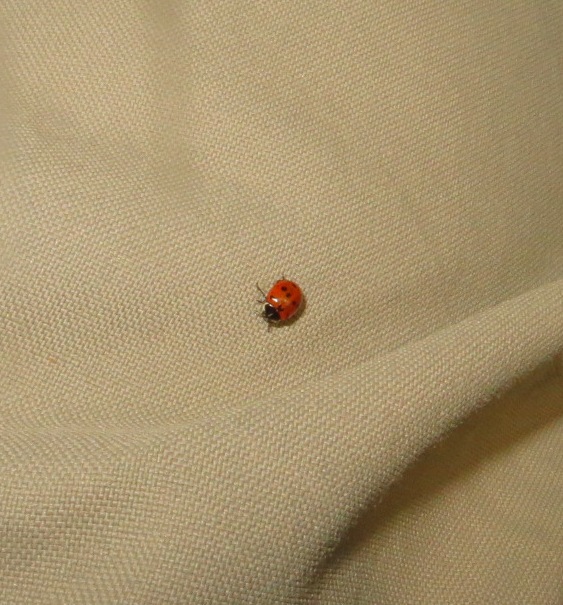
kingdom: Animalia
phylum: Arthropoda
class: Insecta
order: Coleoptera
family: Coccinellidae
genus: Coccinella
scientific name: Coccinella undecimpunctata
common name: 11-spot ladybird
